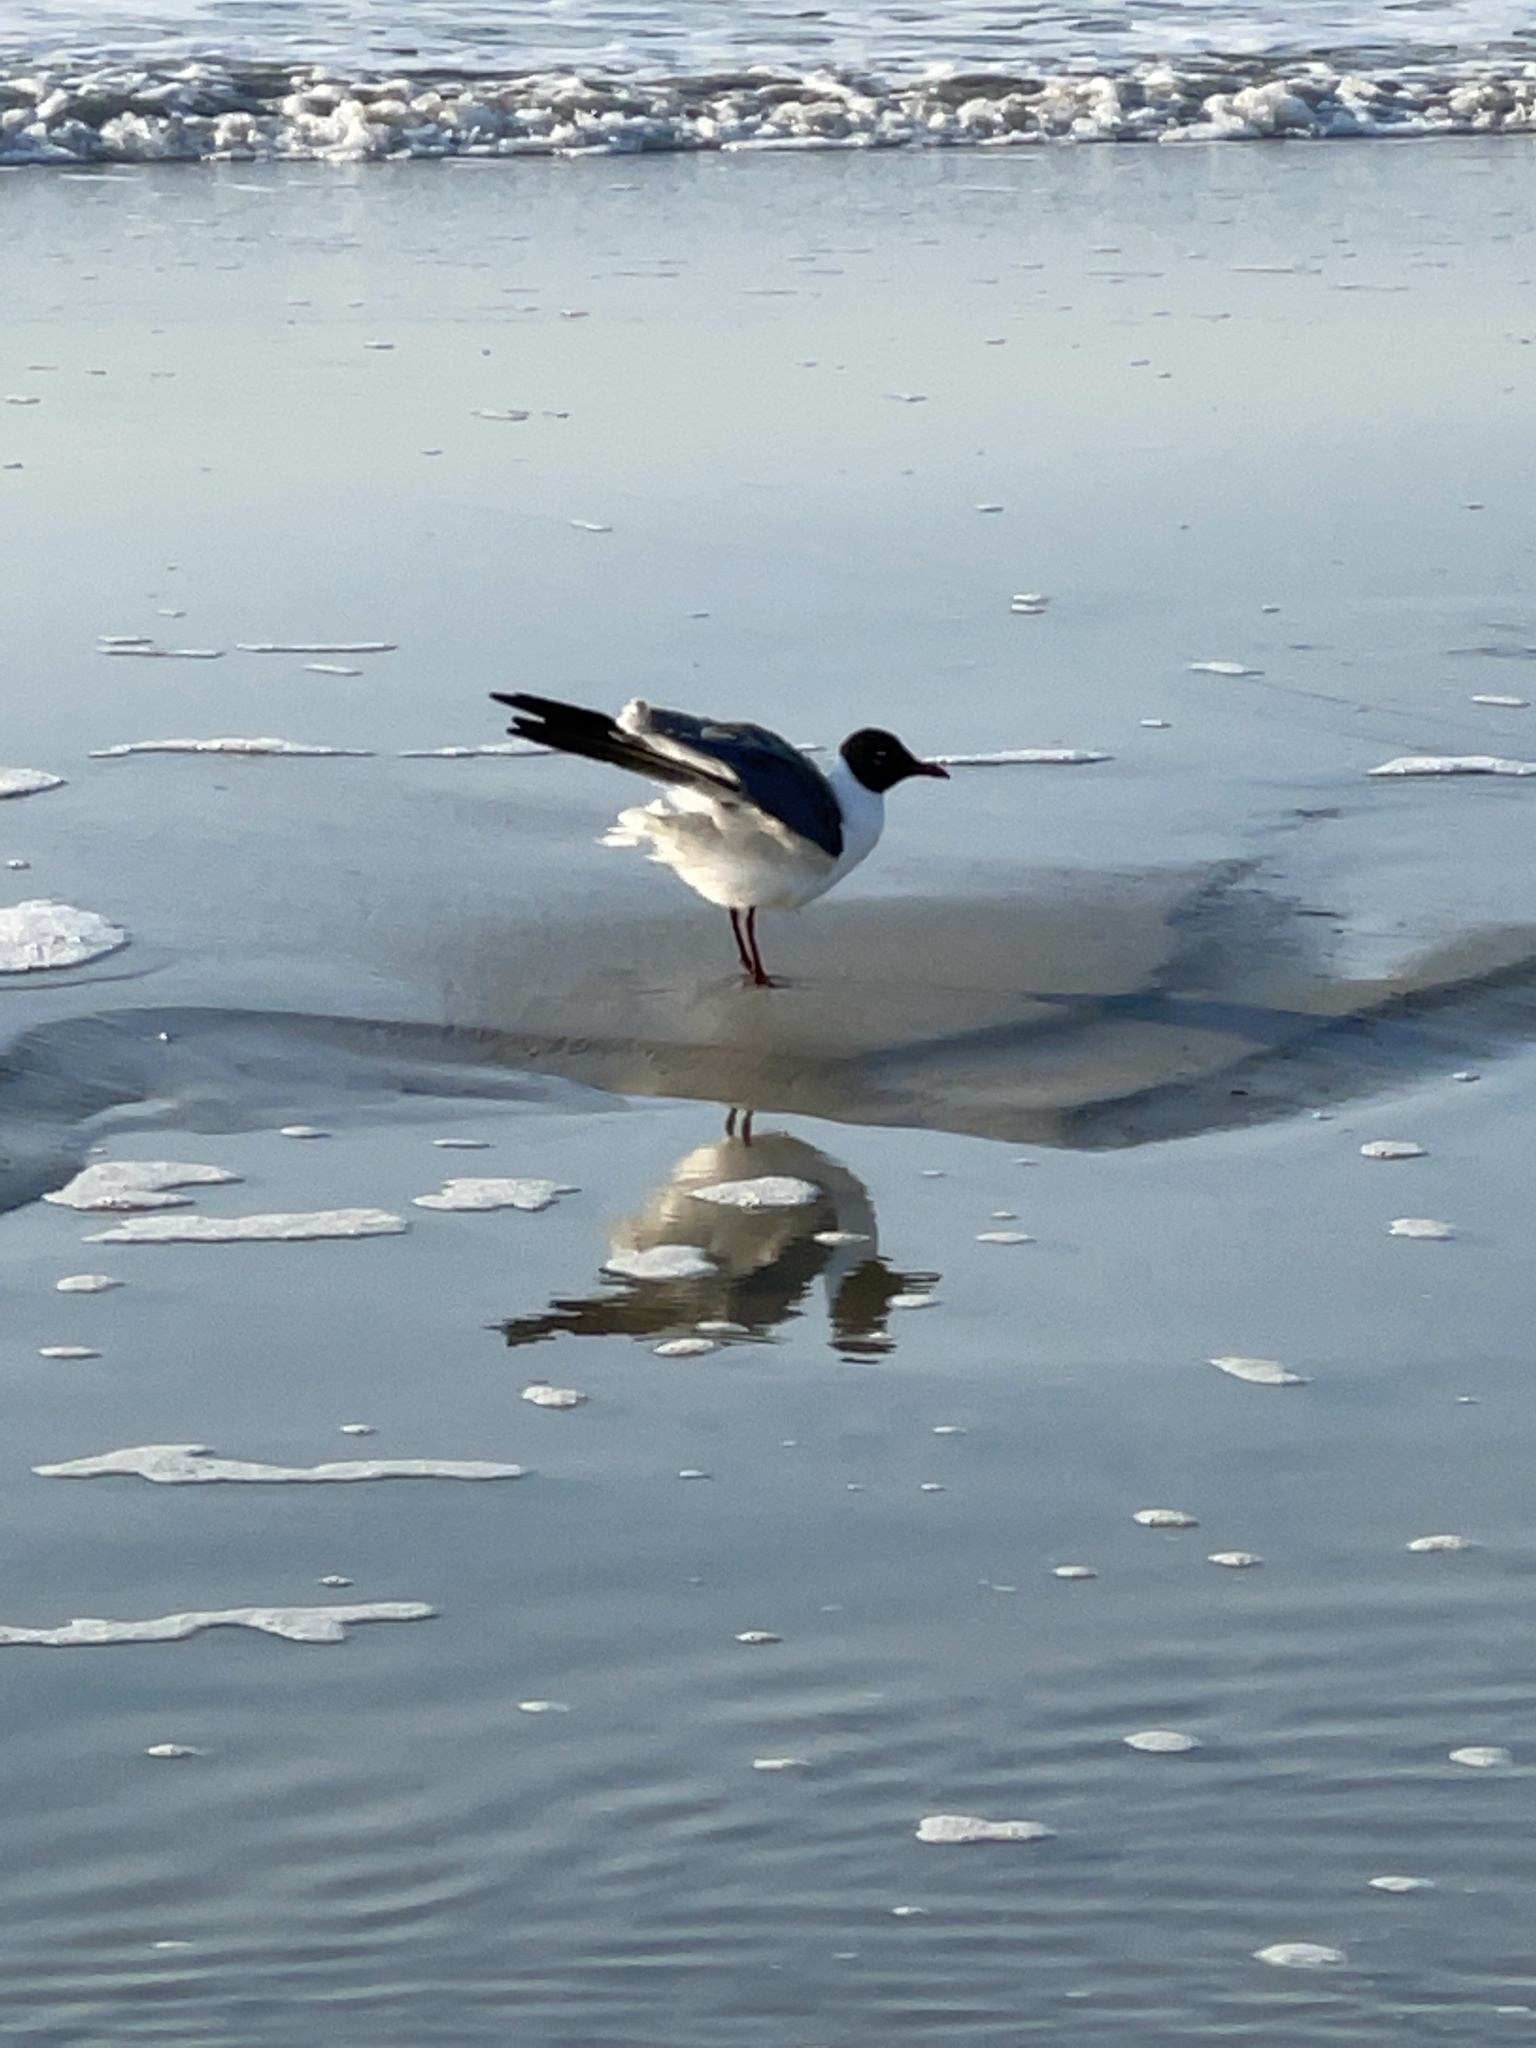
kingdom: Animalia
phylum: Chordata
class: Aves
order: Charadriiformes
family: Laridae
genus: Leucophaeus
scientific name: Leucophaeus atricilla
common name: Laughing gull
